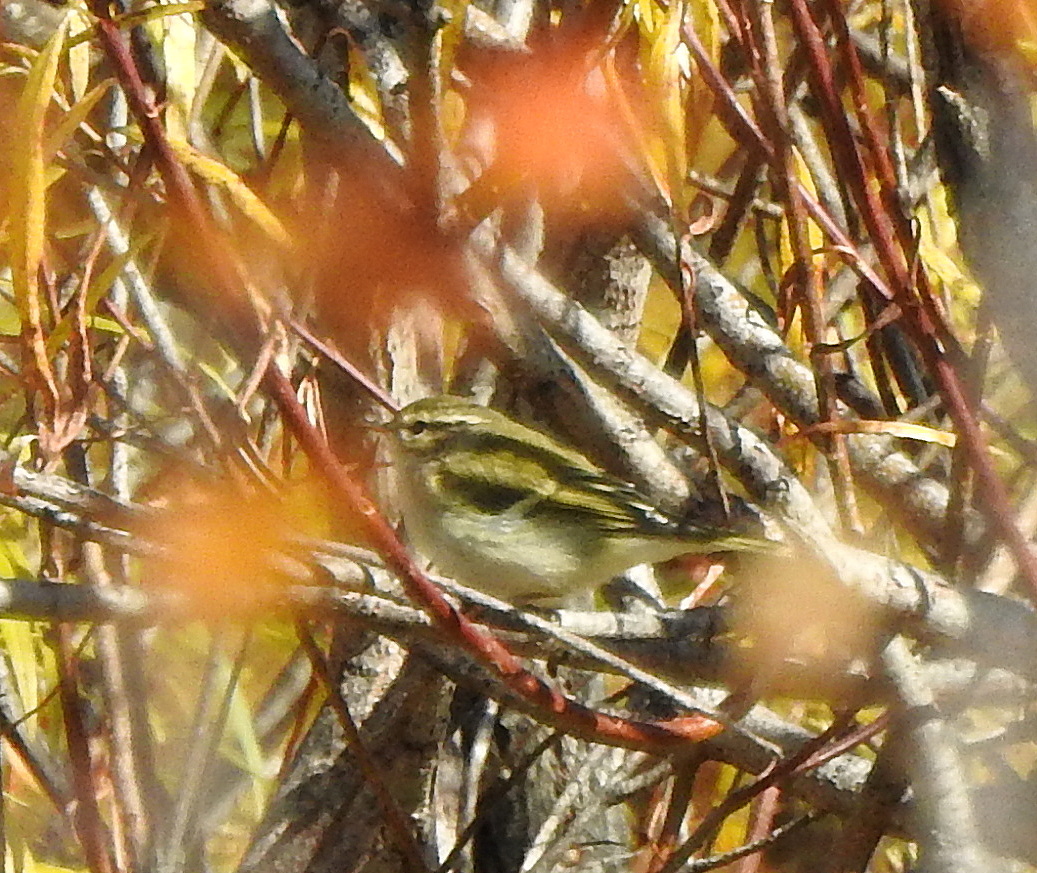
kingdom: Animalia
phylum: Chordata
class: Aves
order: Passeriformes
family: Phylloscopidae
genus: Phylloscopus
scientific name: Phylloscopus inornatus
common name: Yellow-browed warbler
